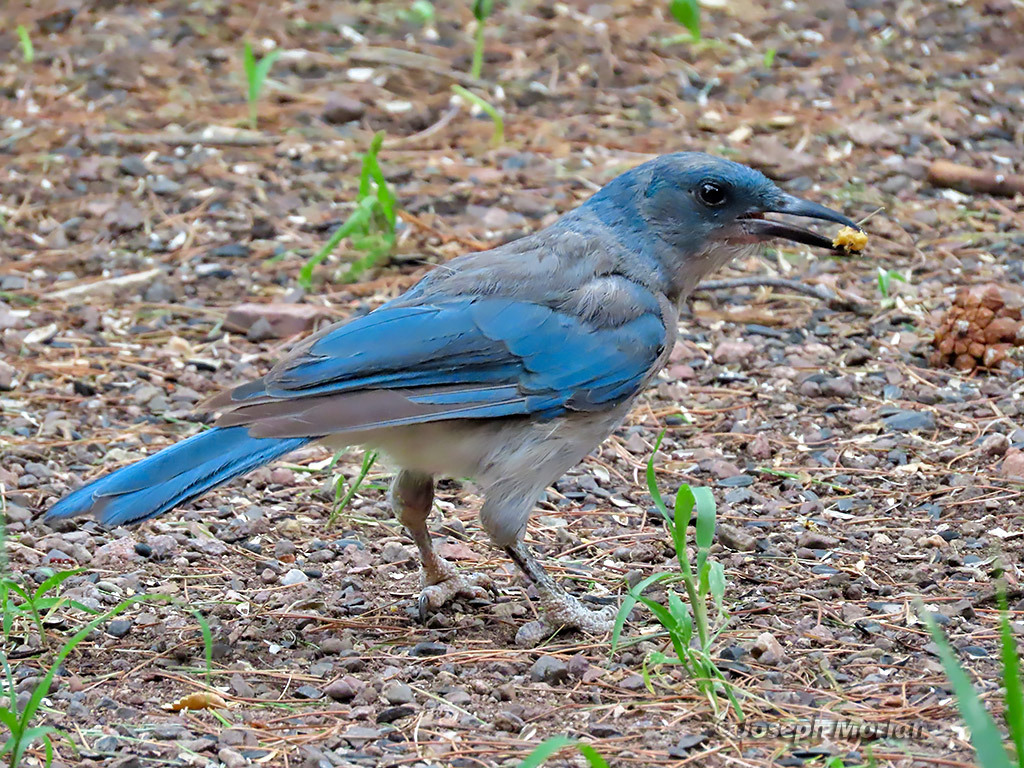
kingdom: Animalia
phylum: Chordata
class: Aves
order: Passeriformes
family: Corvidae
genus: Aphelocoma
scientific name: Aphelocoma wollweberi
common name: Mexican jay
